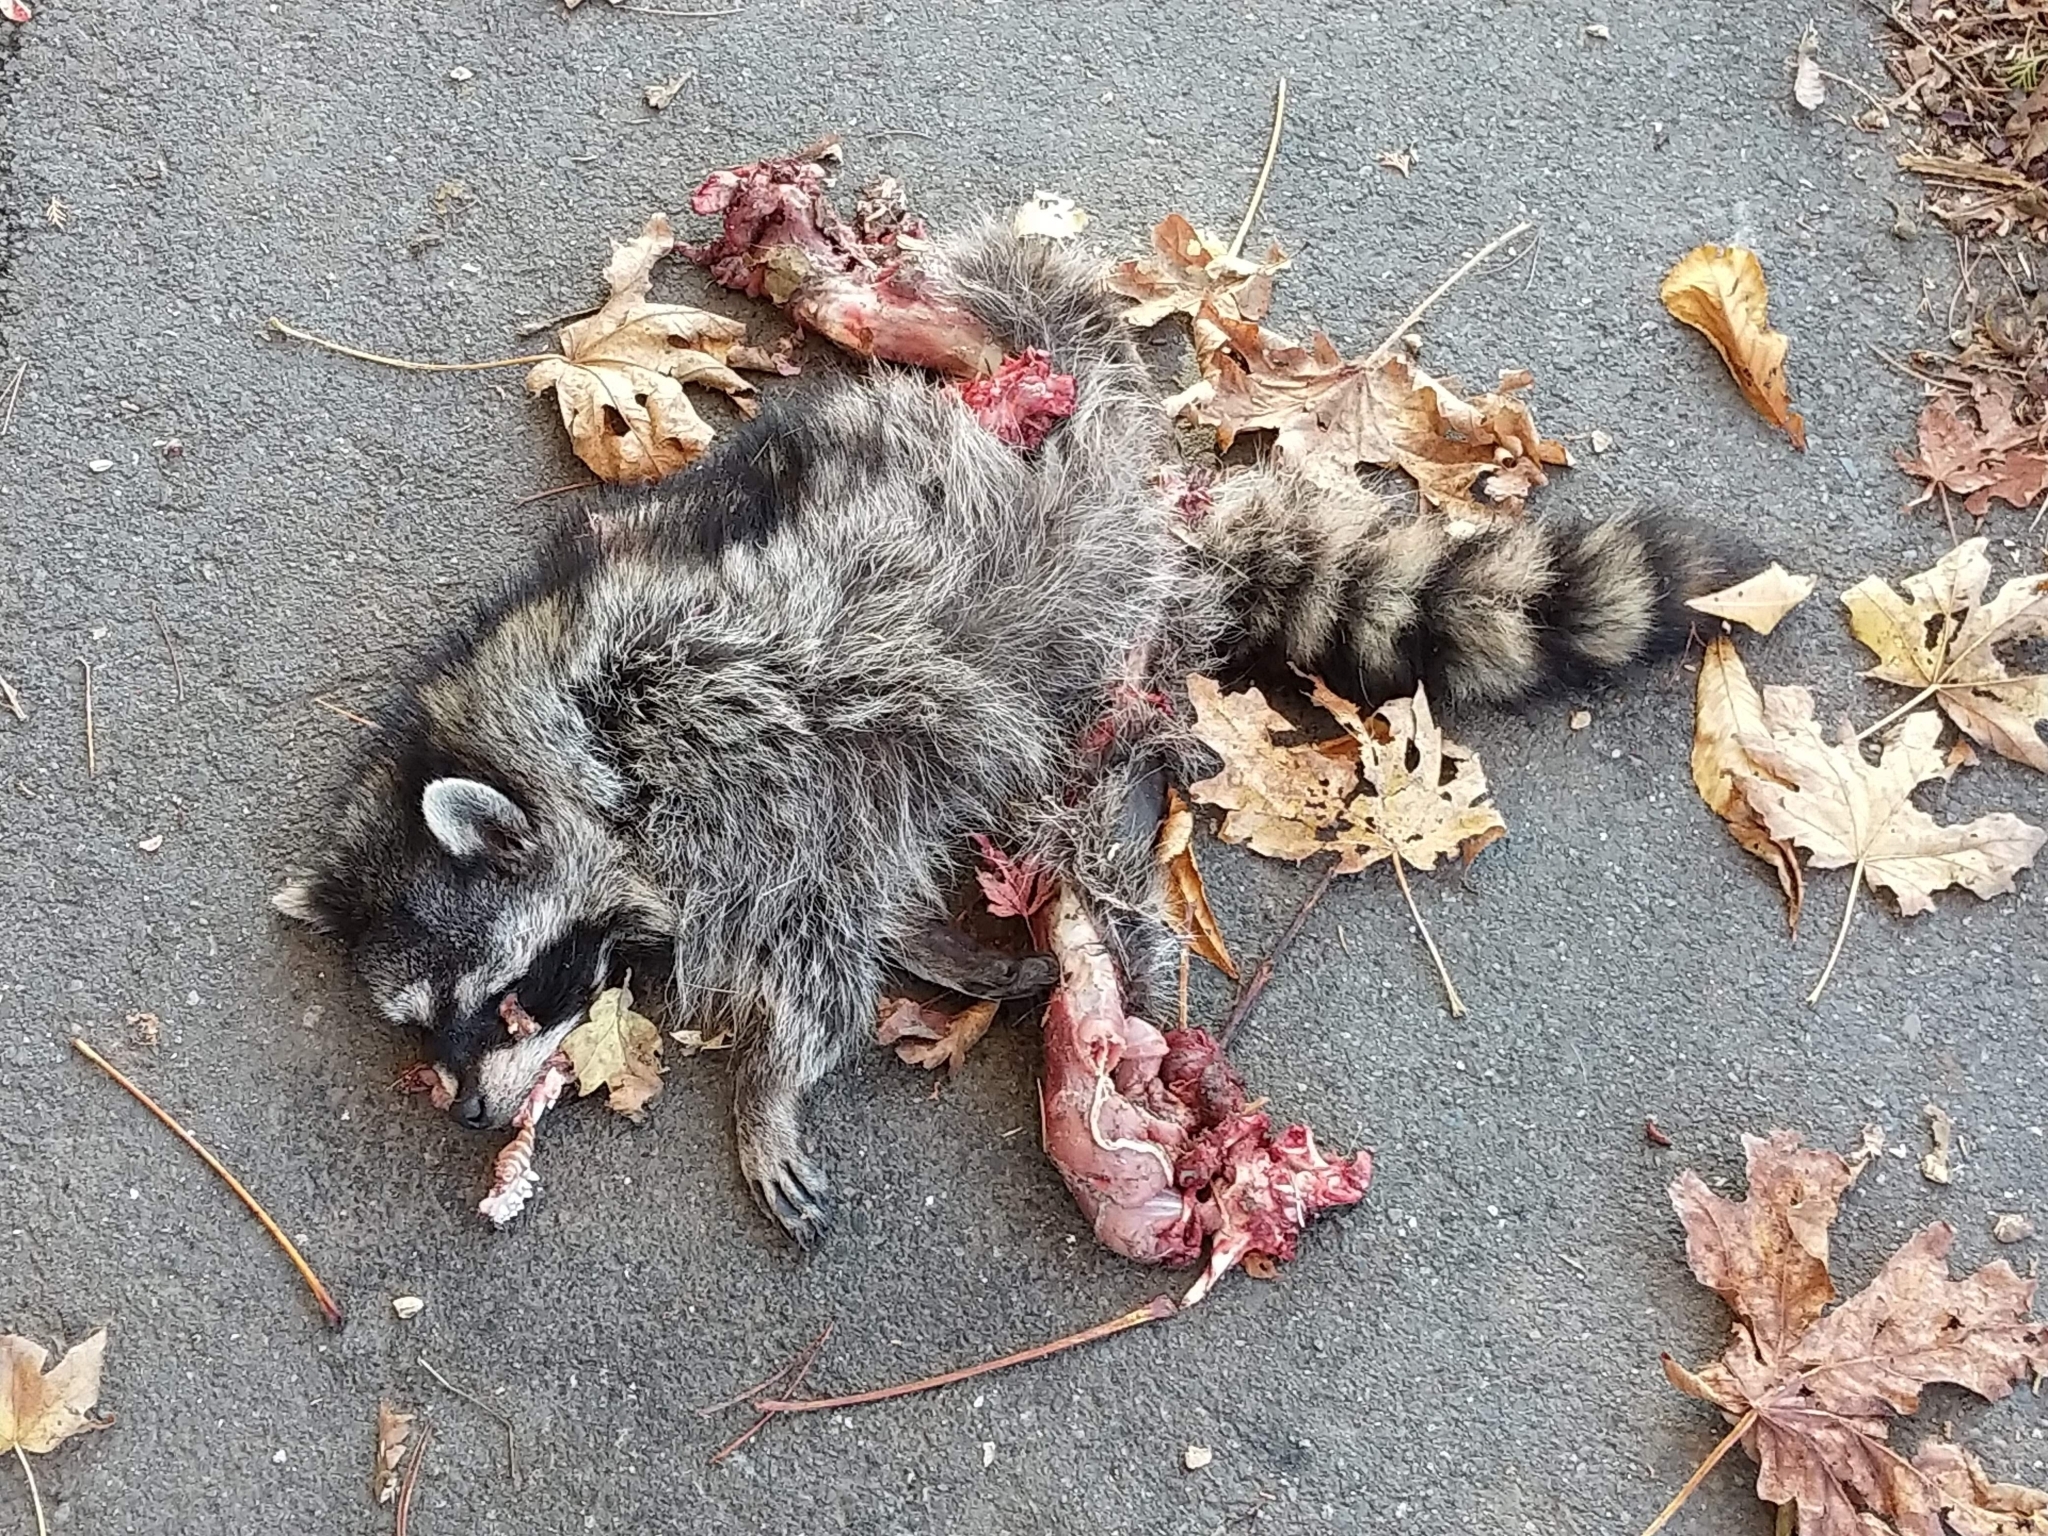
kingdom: Animalia
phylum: Chordata
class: Mammalia
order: Carnivora
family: Procyonidae
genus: Procyon
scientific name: Procyon lotor
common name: Raccoon
